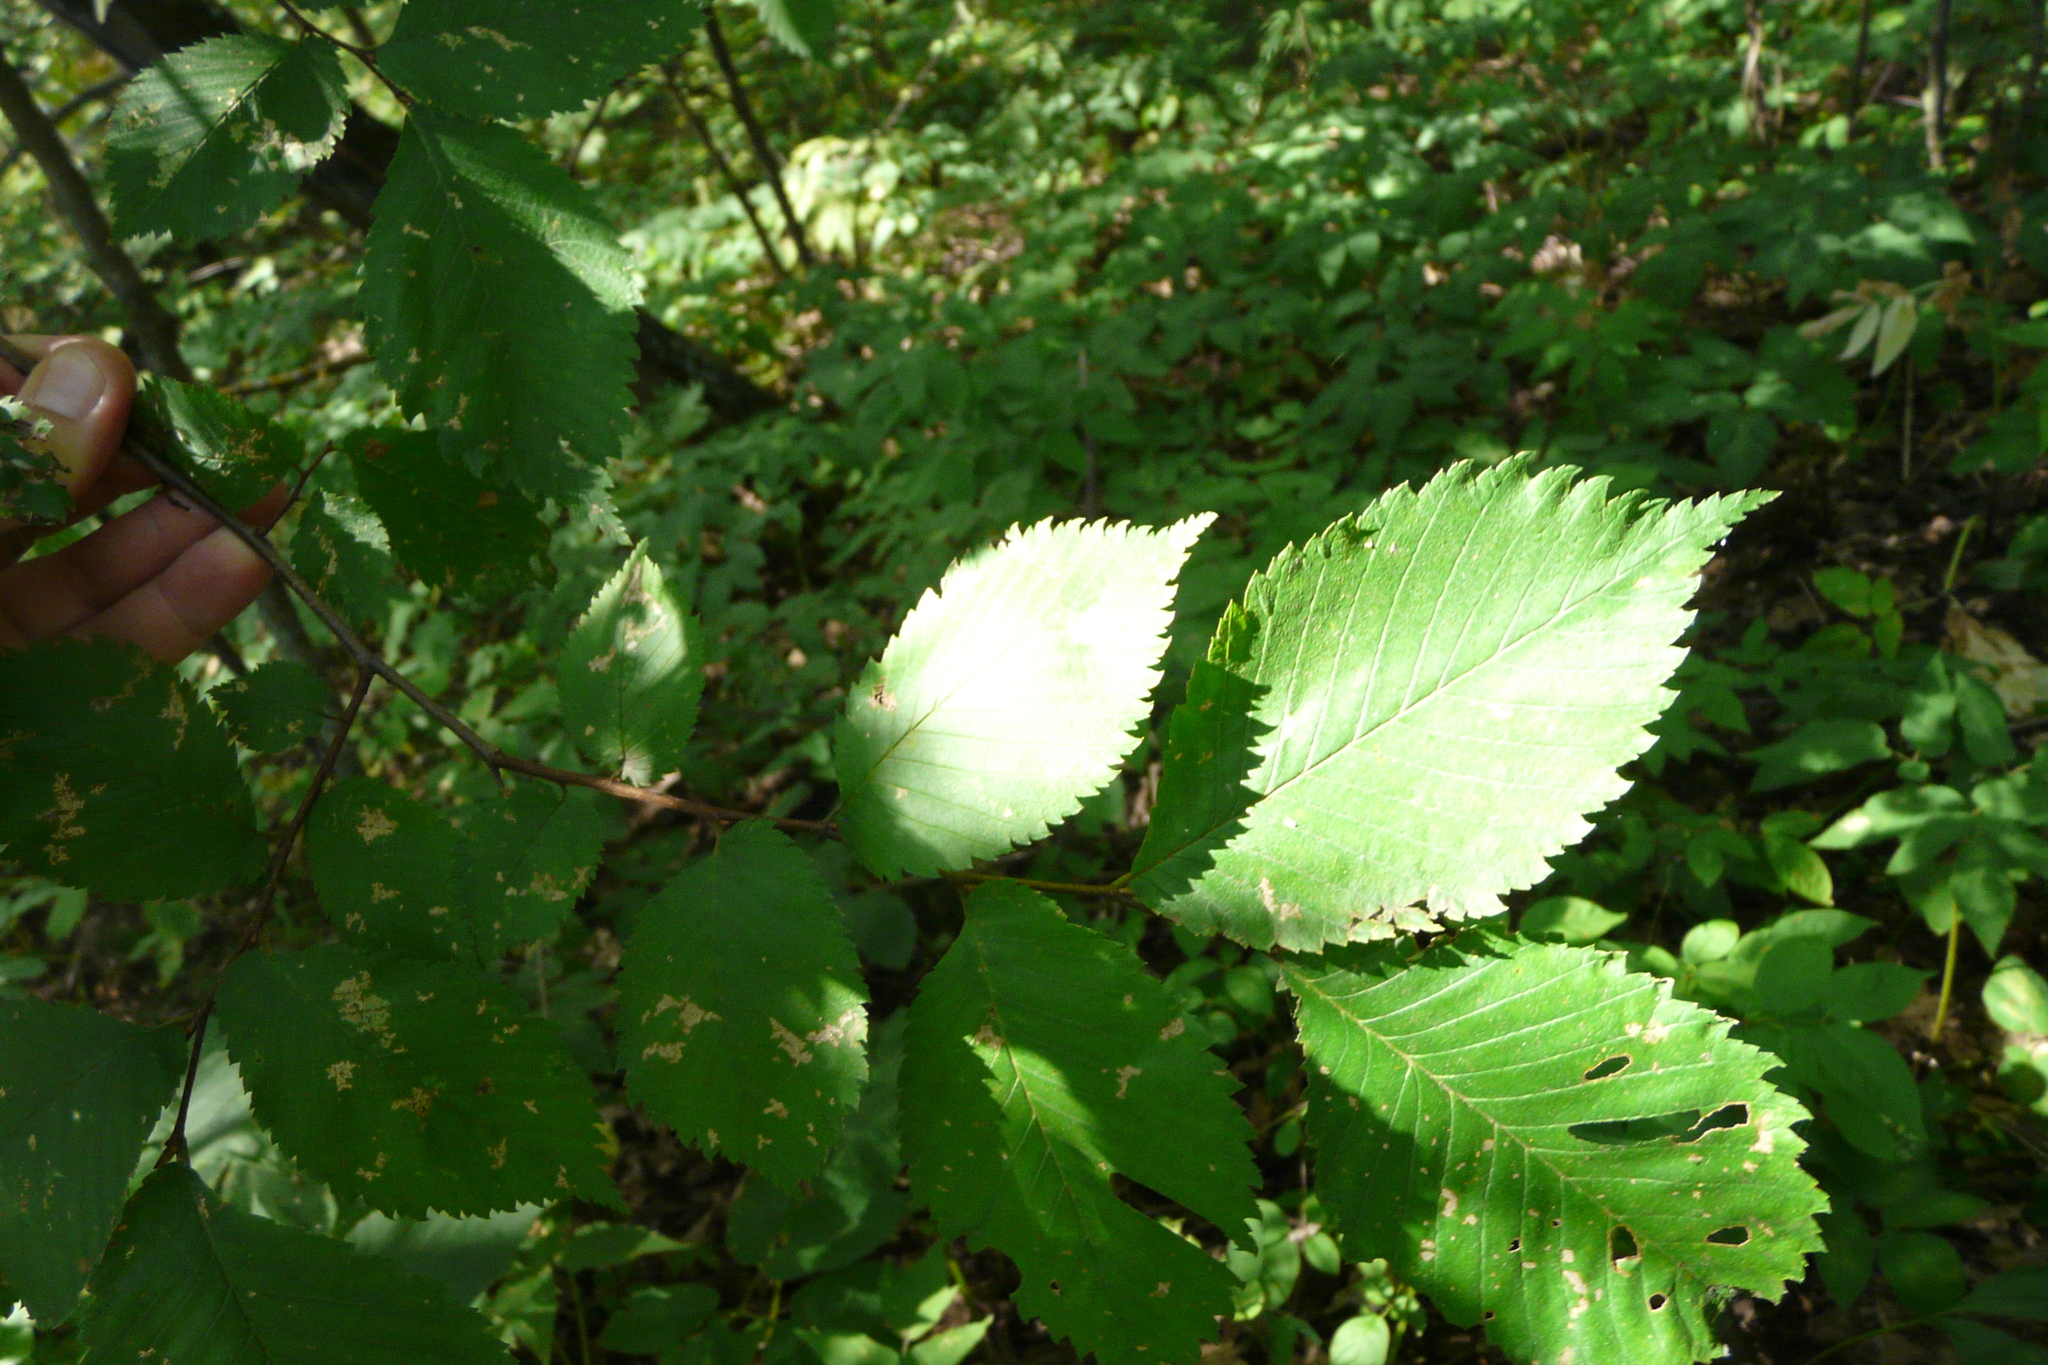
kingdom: Plantae
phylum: Tracheophyta
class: Magnoliopsida
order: Rosales
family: Ulmaceae
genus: Ulmus
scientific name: Ulmus laevis
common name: European white-elm
